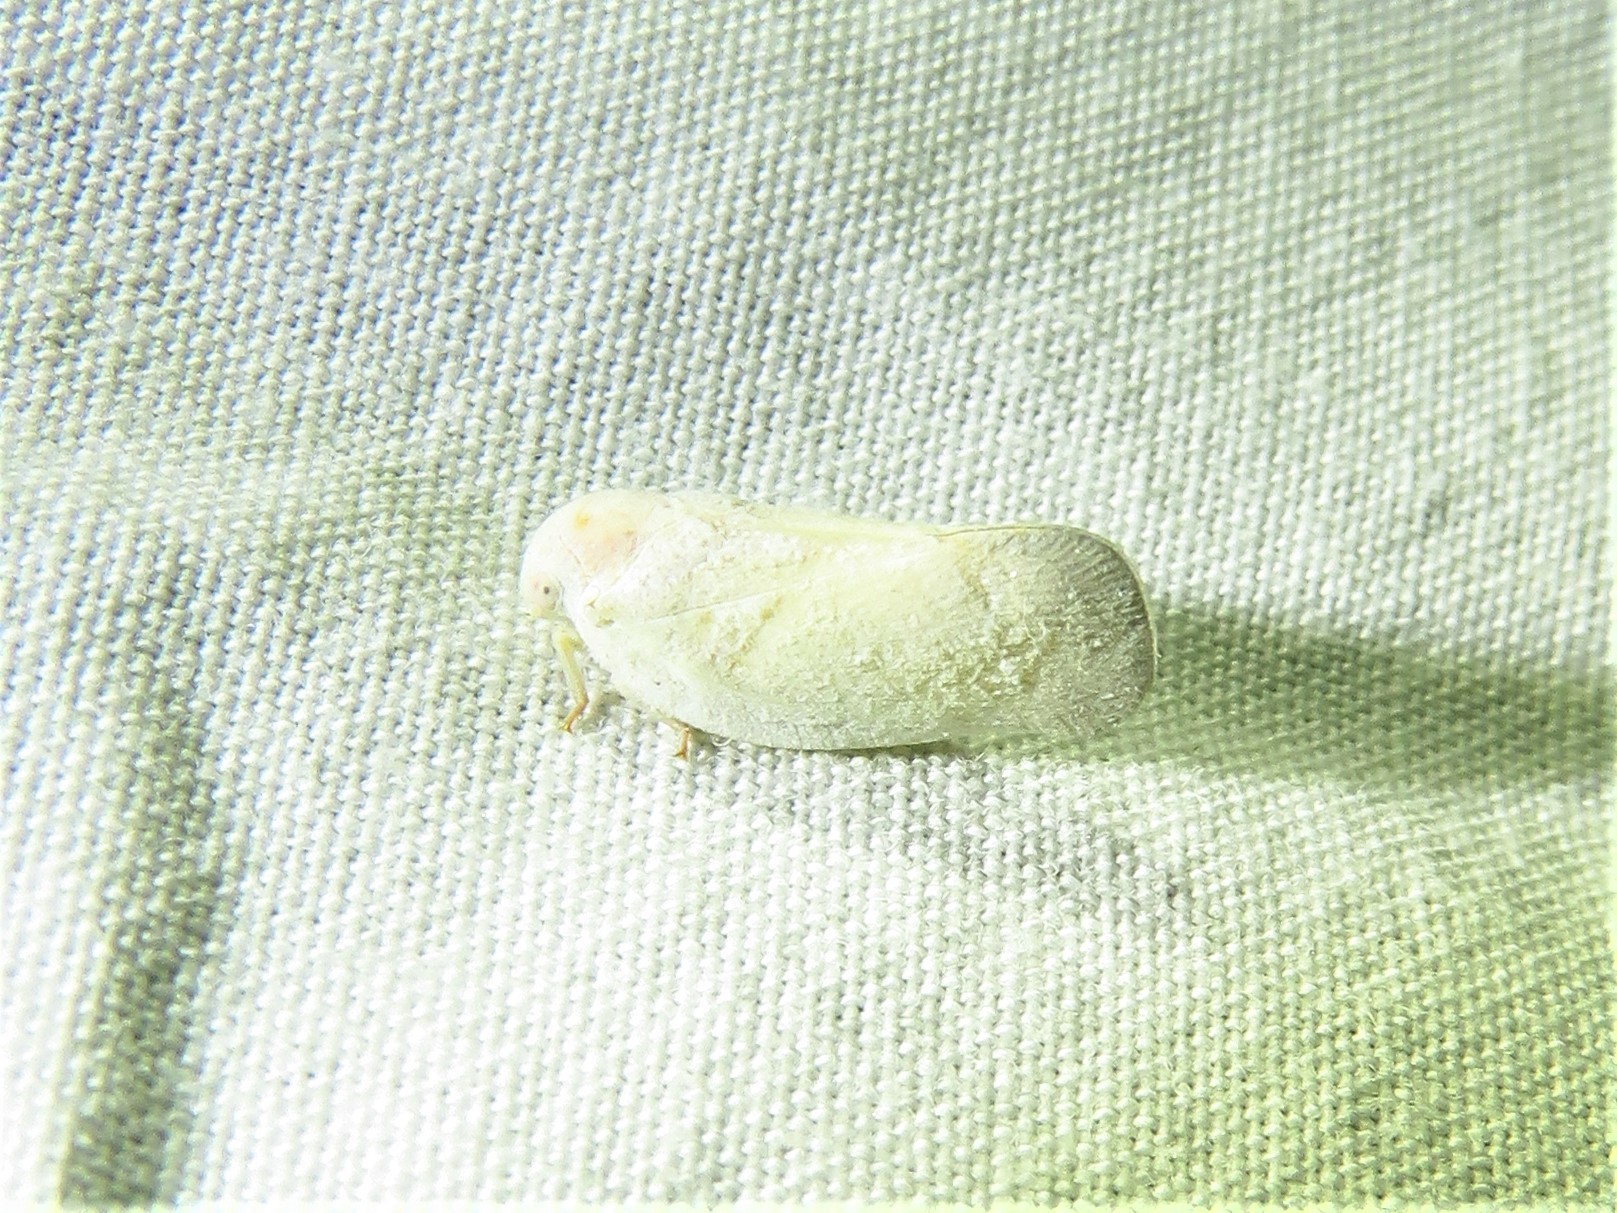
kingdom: Animalia
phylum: Arthropoda
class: Insecta
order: Hemiptera
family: Flatidae
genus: Flatormenis
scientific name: Flatormenis saucia
